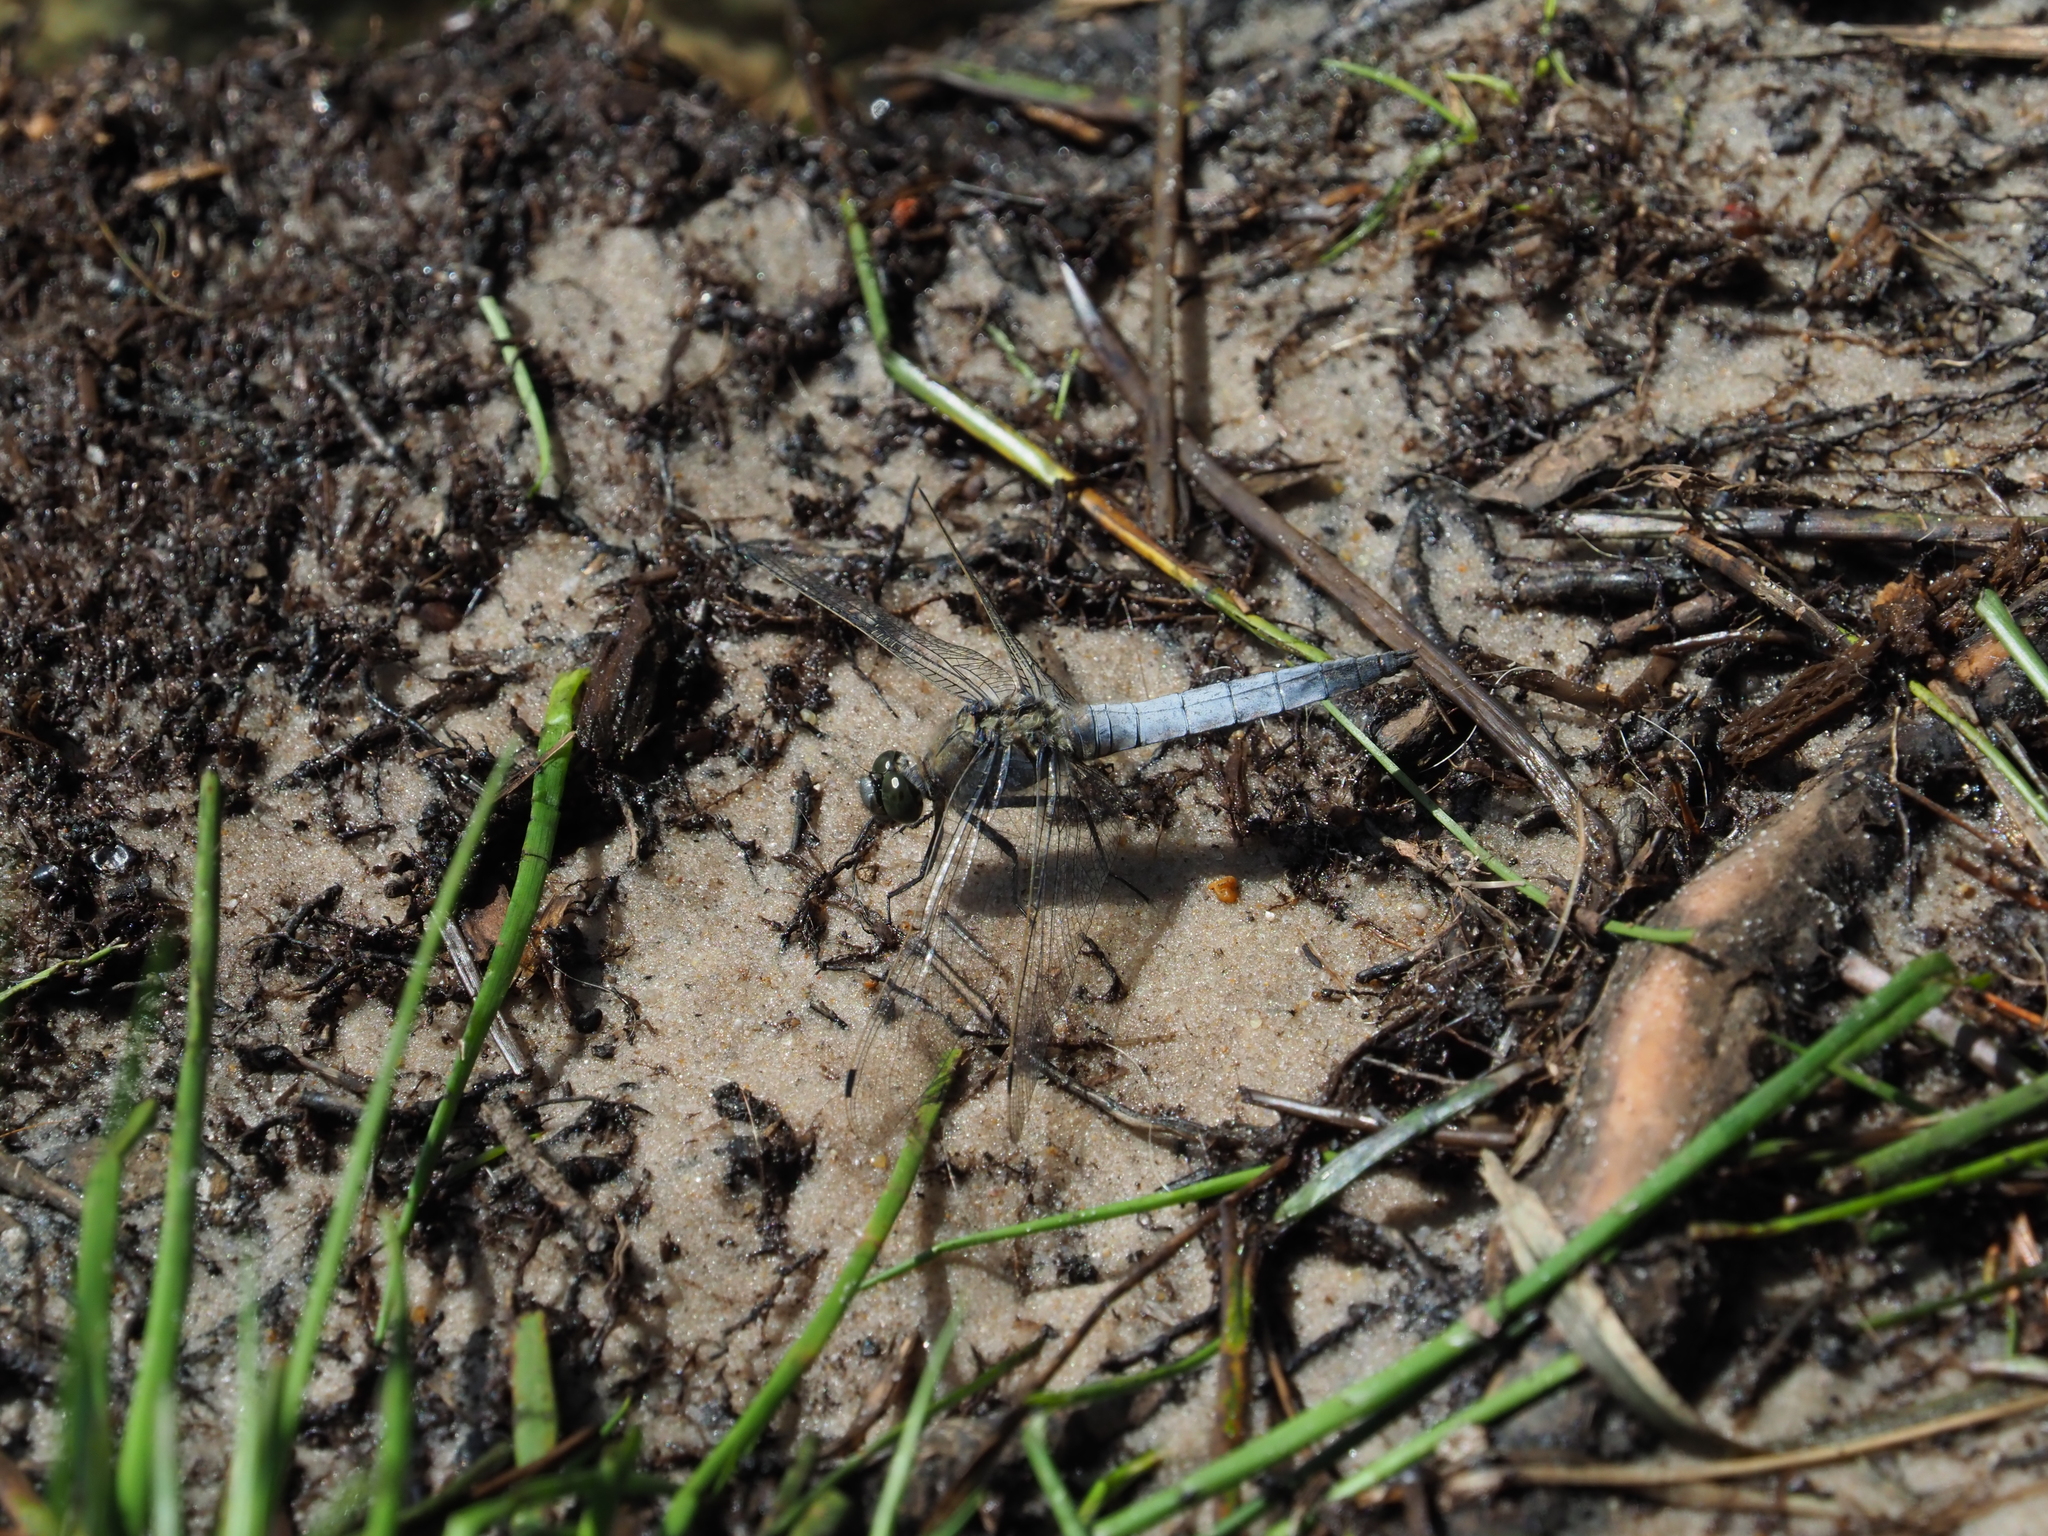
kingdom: Animalia
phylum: Arthropoda
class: Insecta
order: Odonata
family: Libellulidae
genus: Orthetrum
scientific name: Orthetrum cancellatum
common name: Black-tailed skimmer
